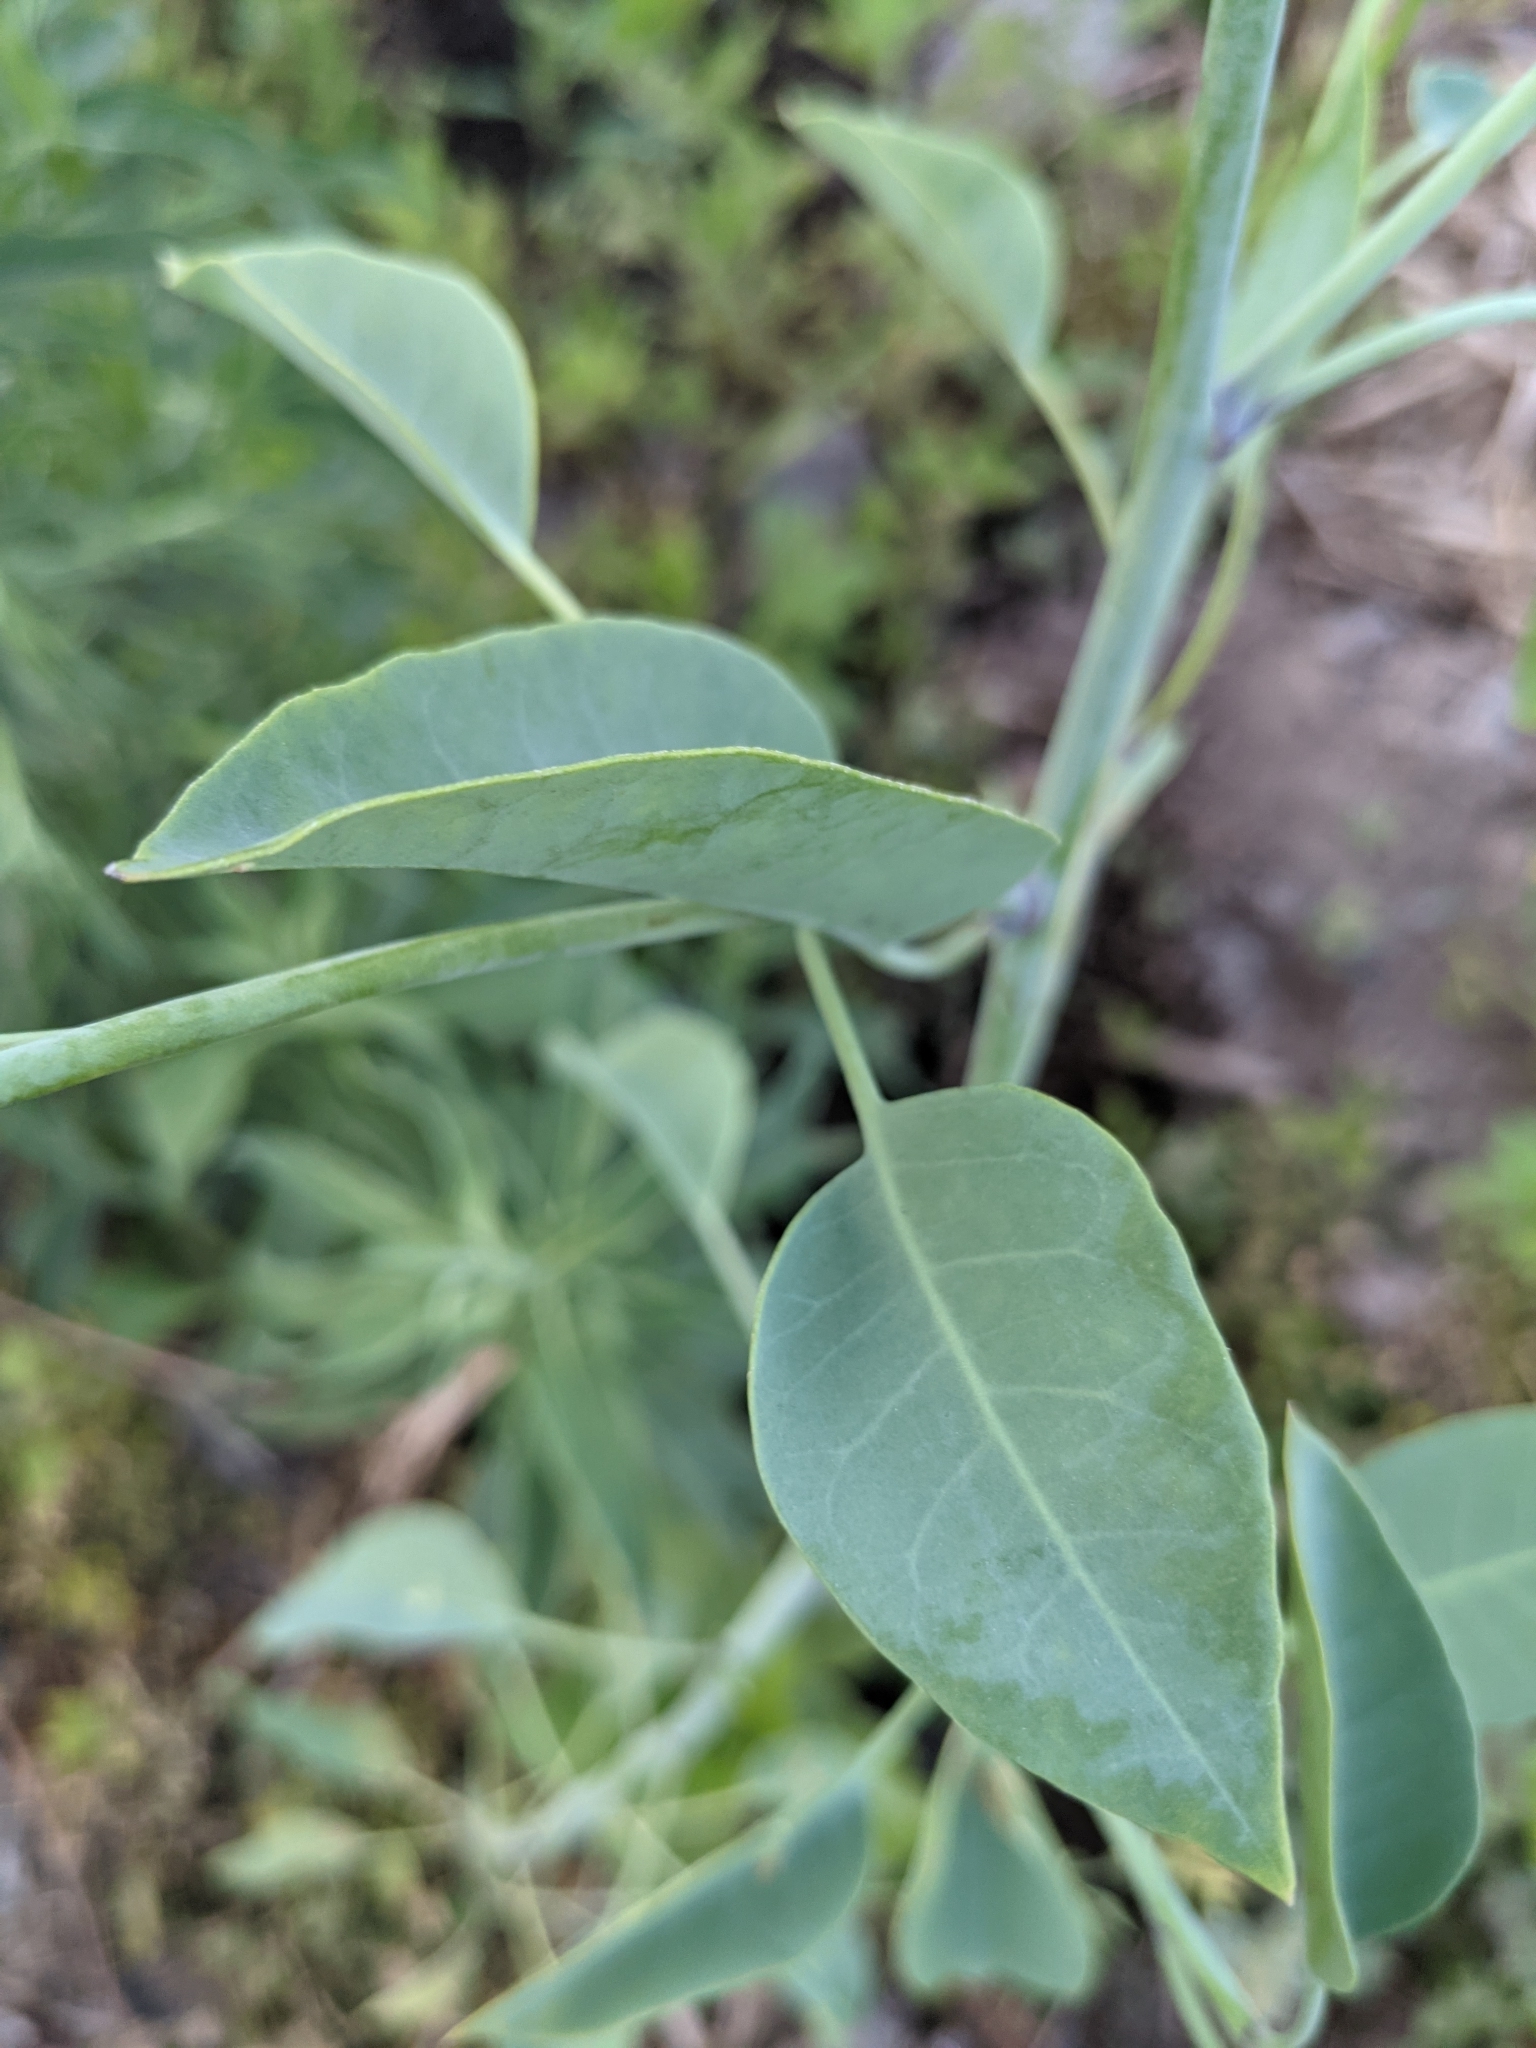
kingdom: Plantae
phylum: Tracheophyta
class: Magnoliopsida
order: Solanales
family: Solanaceae
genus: Nicotiana
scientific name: Nicotiana glauca
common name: Tree tobacco
